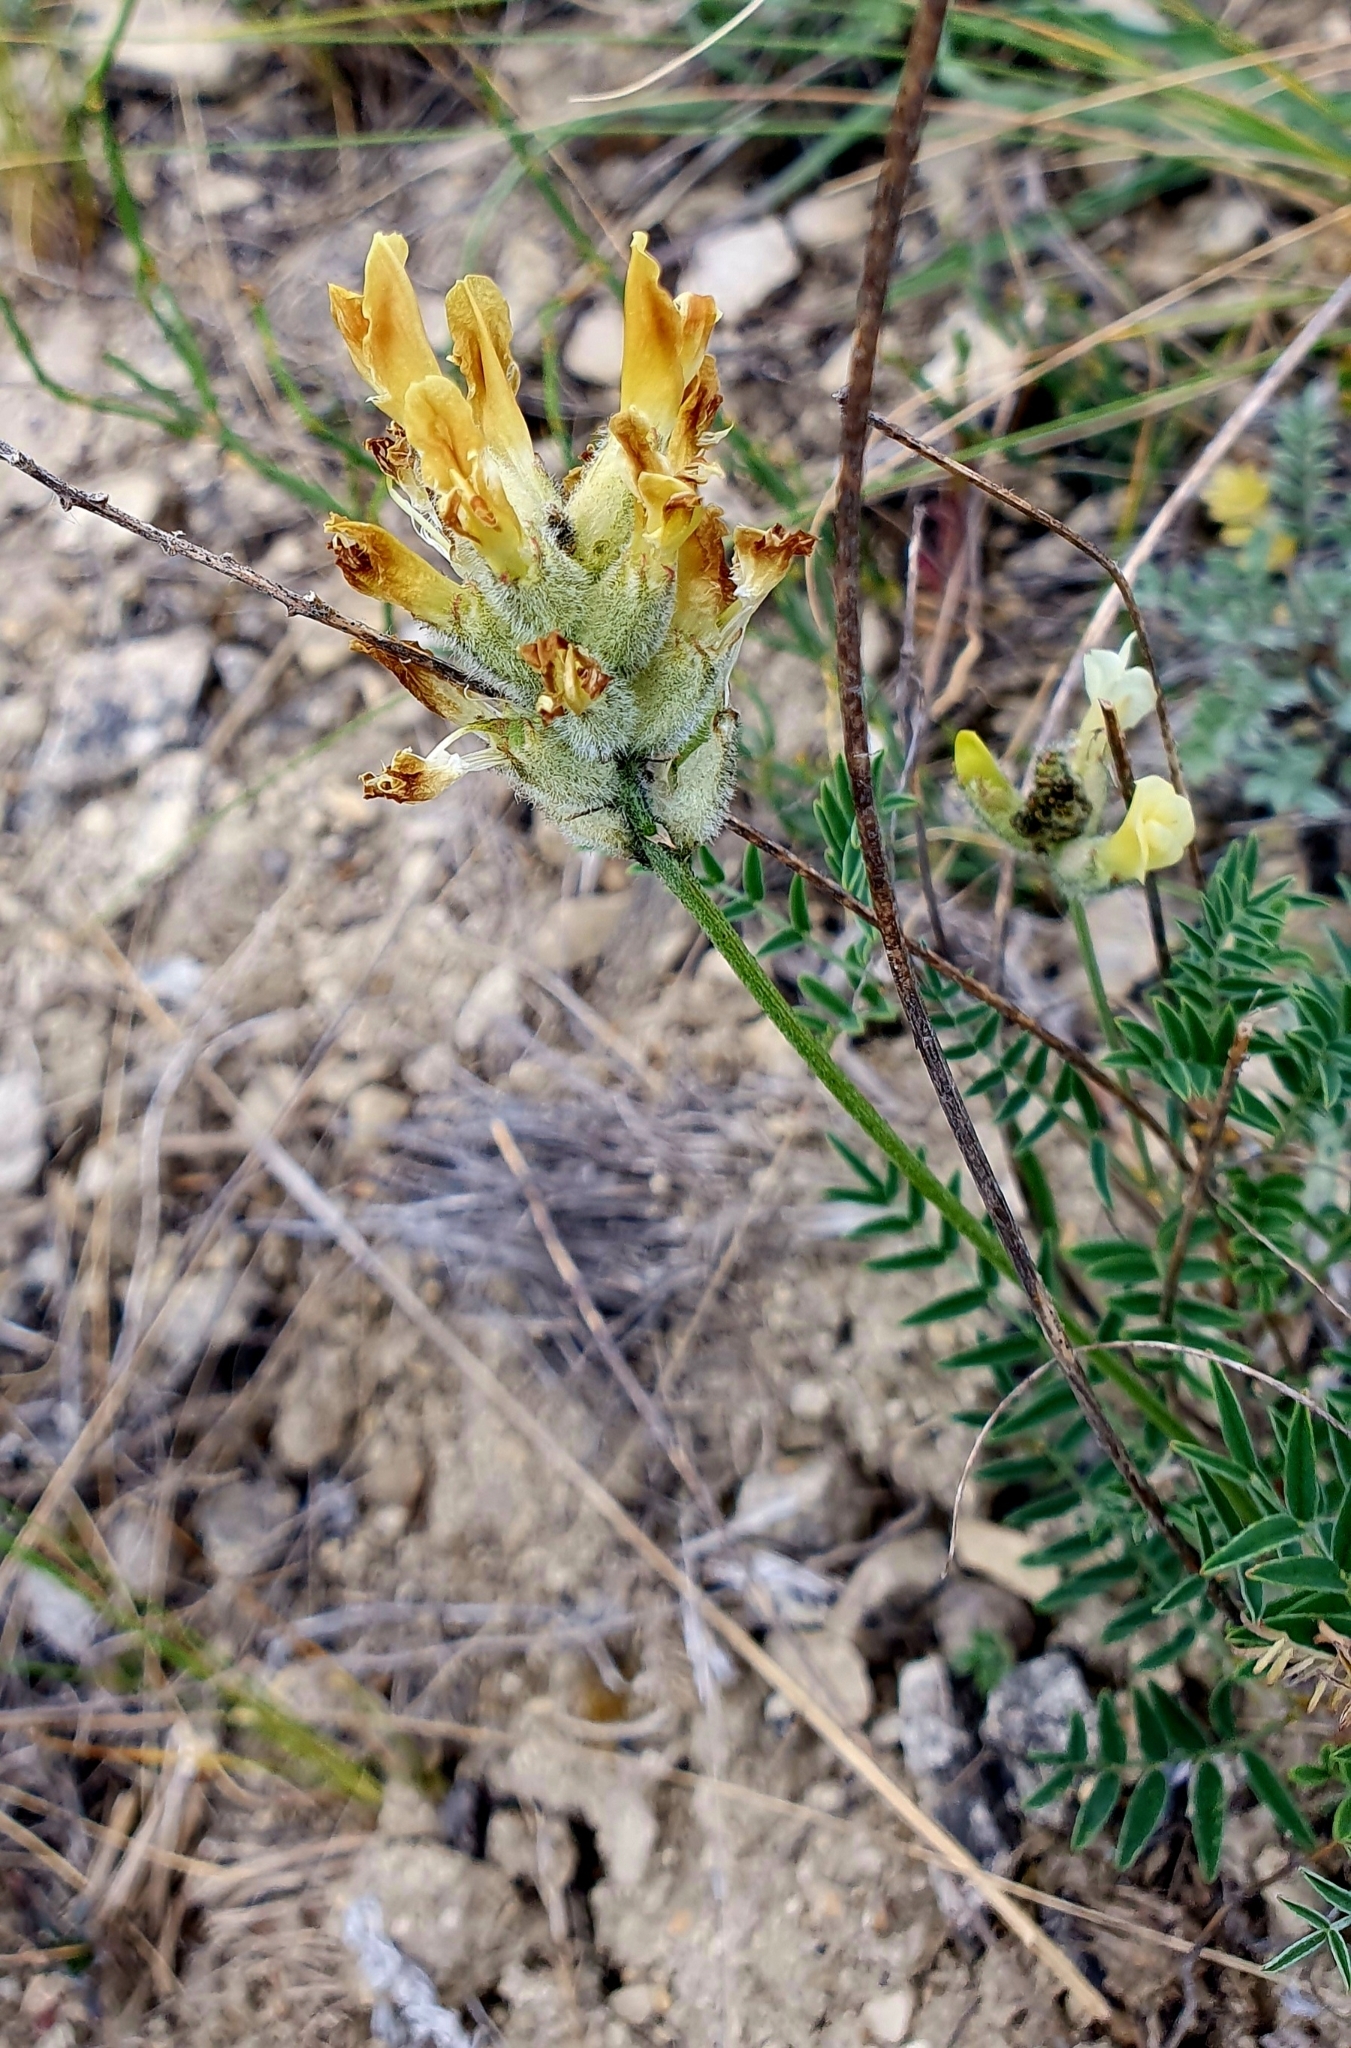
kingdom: Plantae
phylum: Tracheophyta
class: Magnoliopsida
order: Fabales
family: Fabaceae
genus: Astragalus
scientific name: Astragalus zingeri
